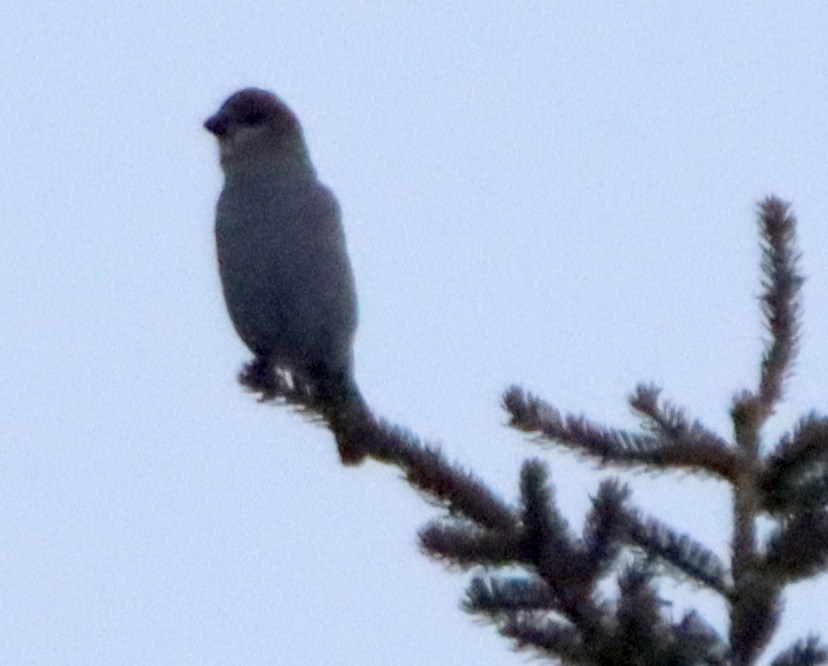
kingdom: Animalia
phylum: Chordata
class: Aves
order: Passeriformes
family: Fringillidae
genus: Pinicola
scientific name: Pinicola enucleator
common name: Pine grosbeak
